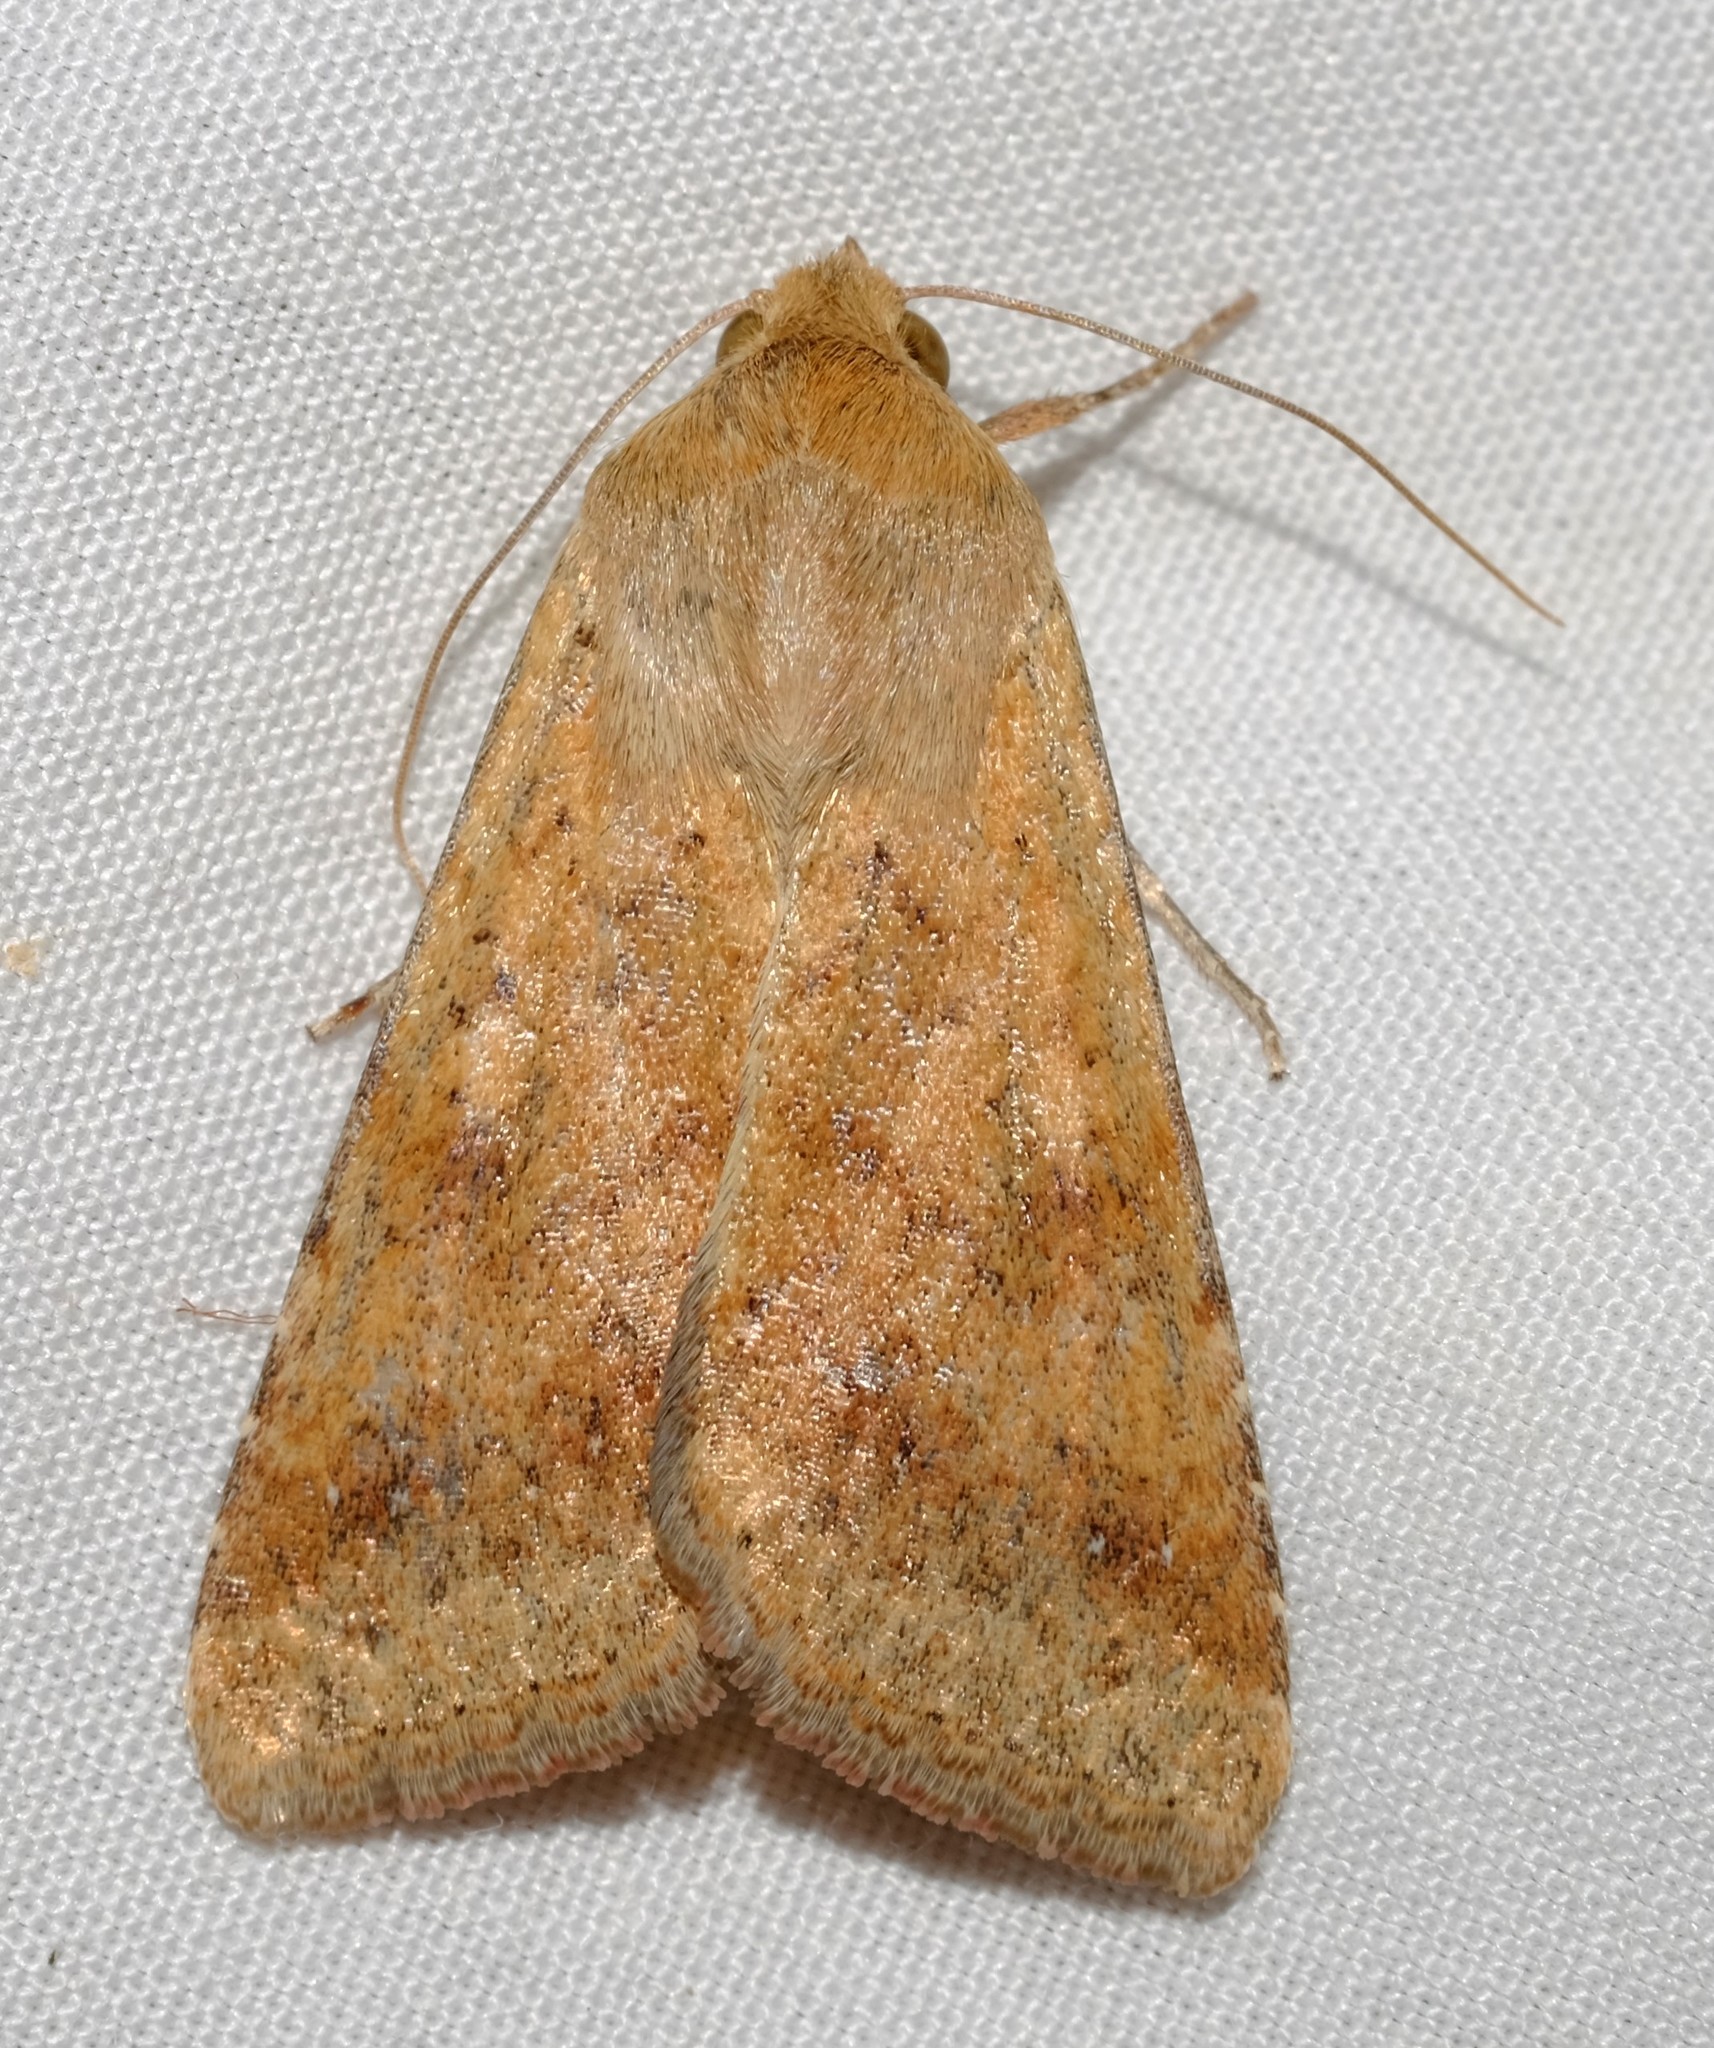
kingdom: Animalia
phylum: Arthropoda
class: Insecta
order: Lepidoptera
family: Noctuidae
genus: Helicoverpa
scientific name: Helicoverpa punctigera
